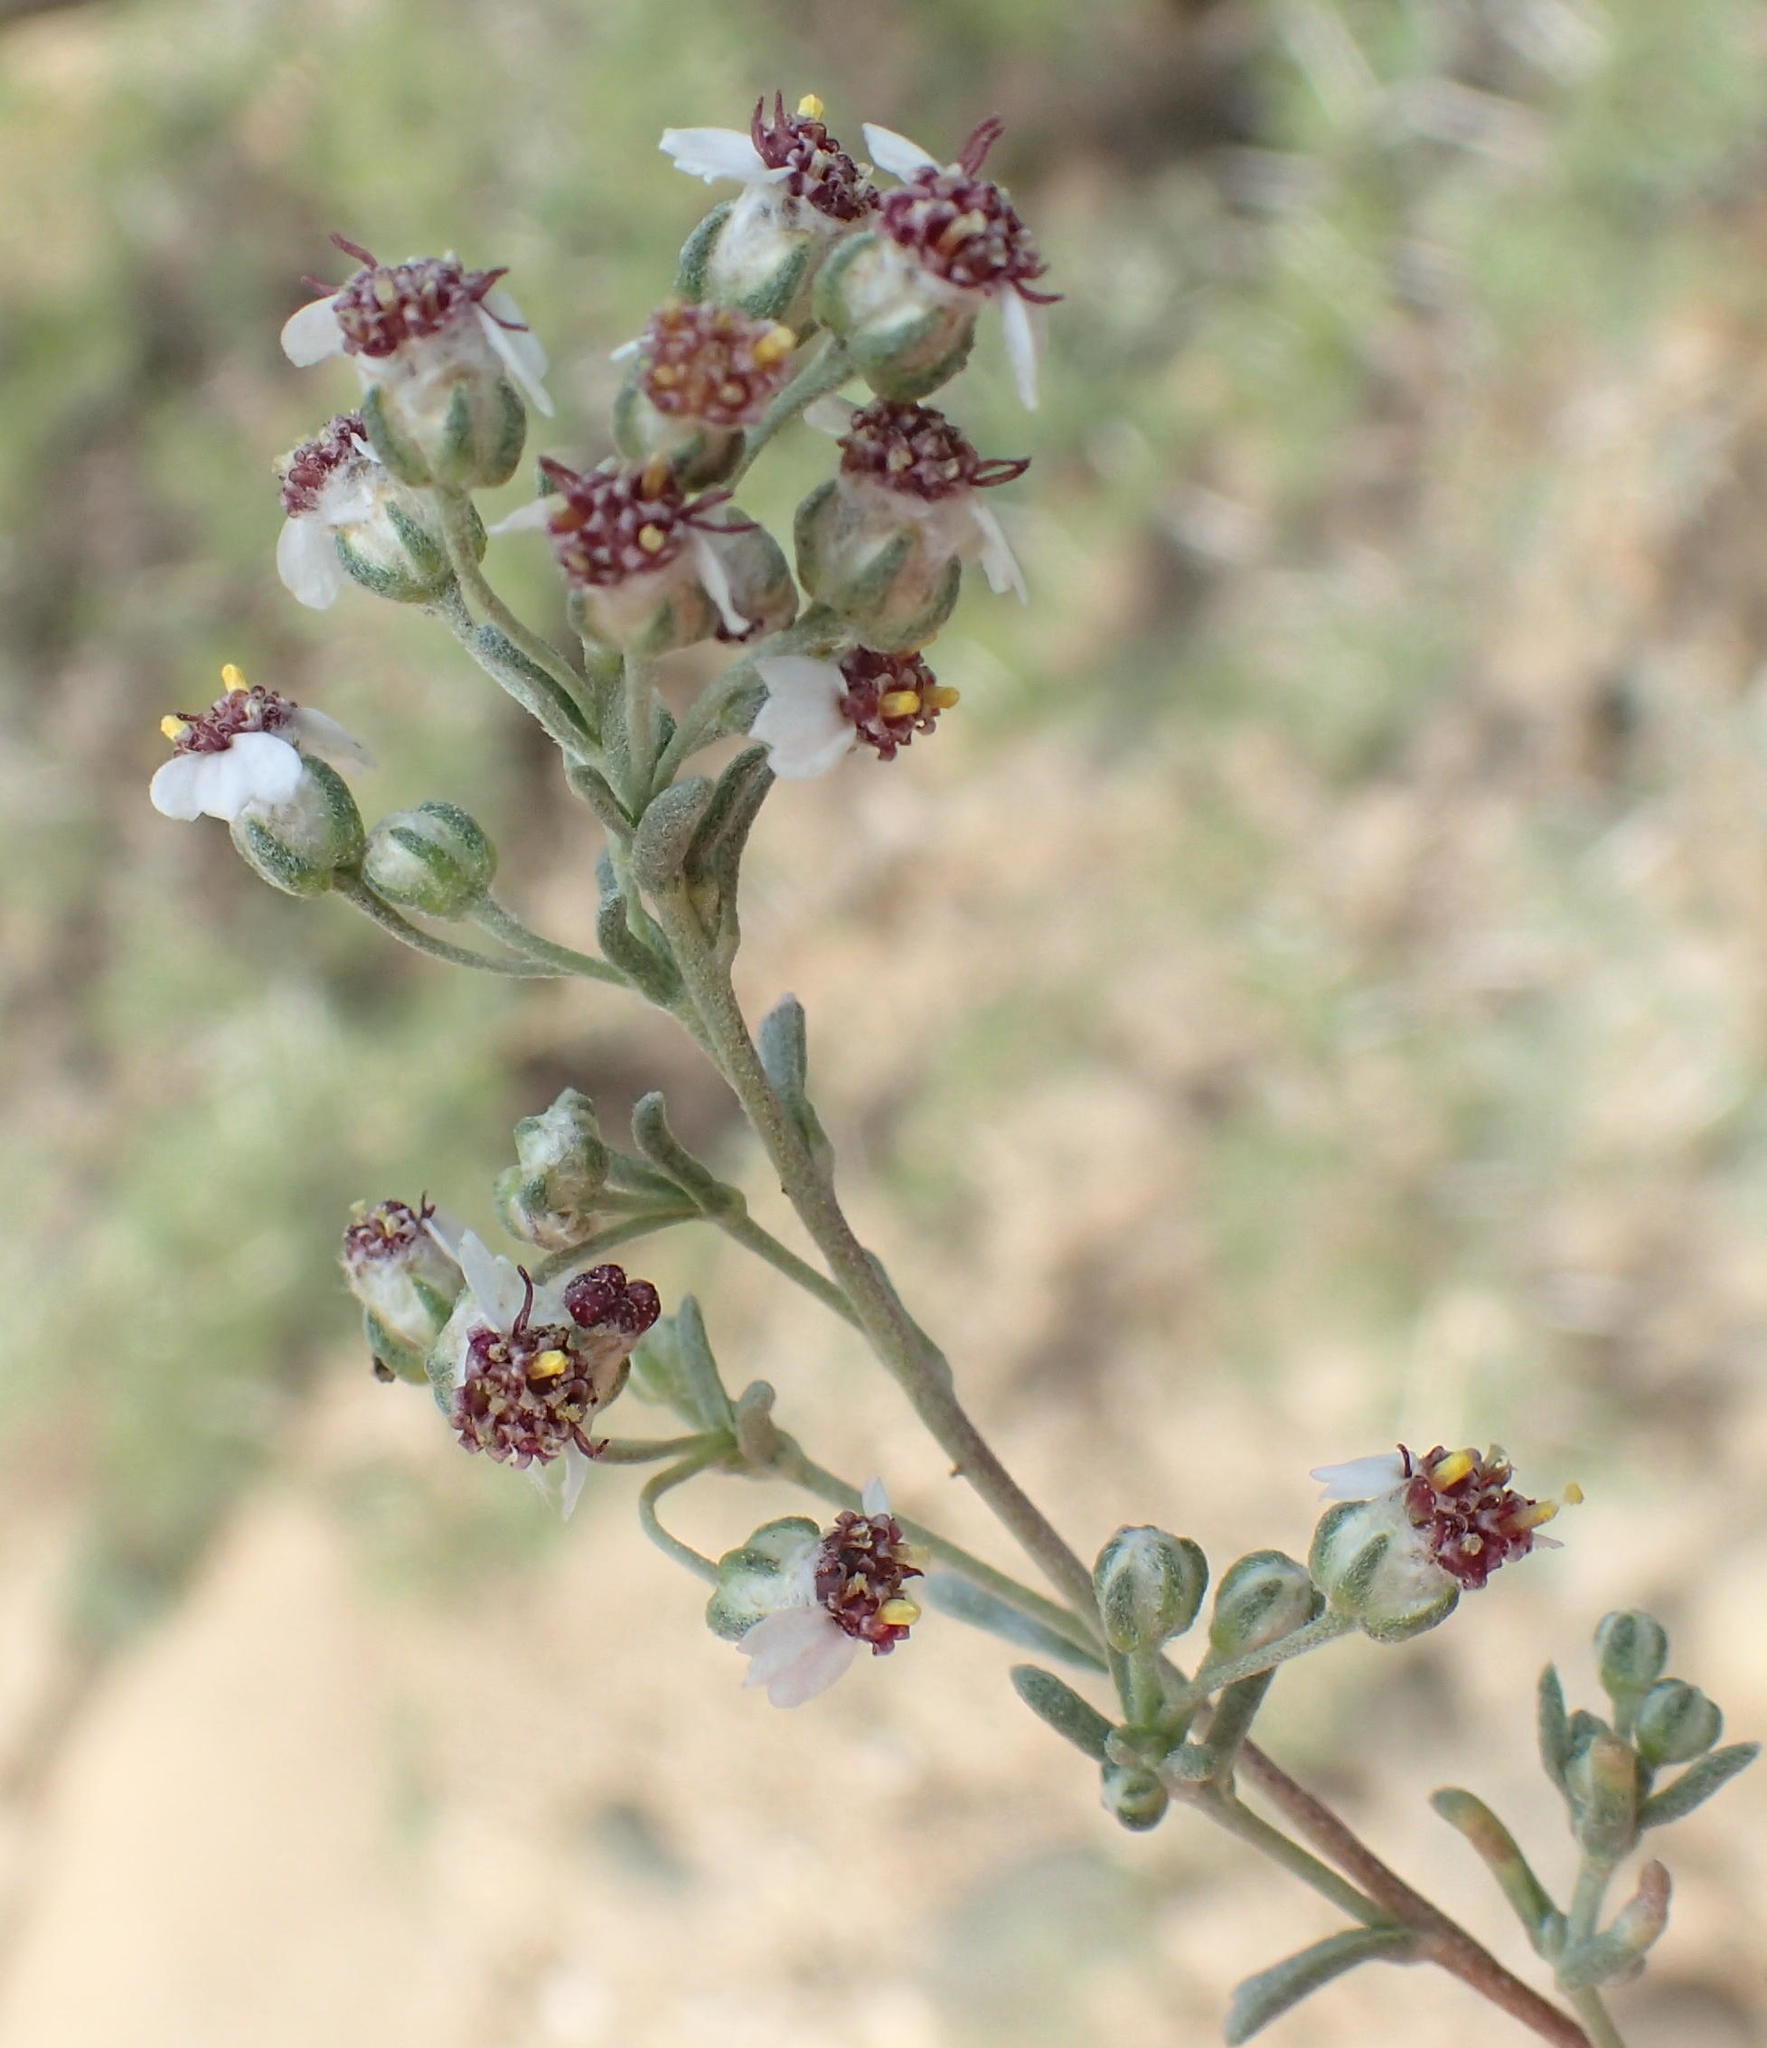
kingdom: Plantae
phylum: Tracheophyta
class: Magnoliopsida
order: Asterales
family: Asteraceae
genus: Eriocephalus
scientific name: Eriocephalus africanus
